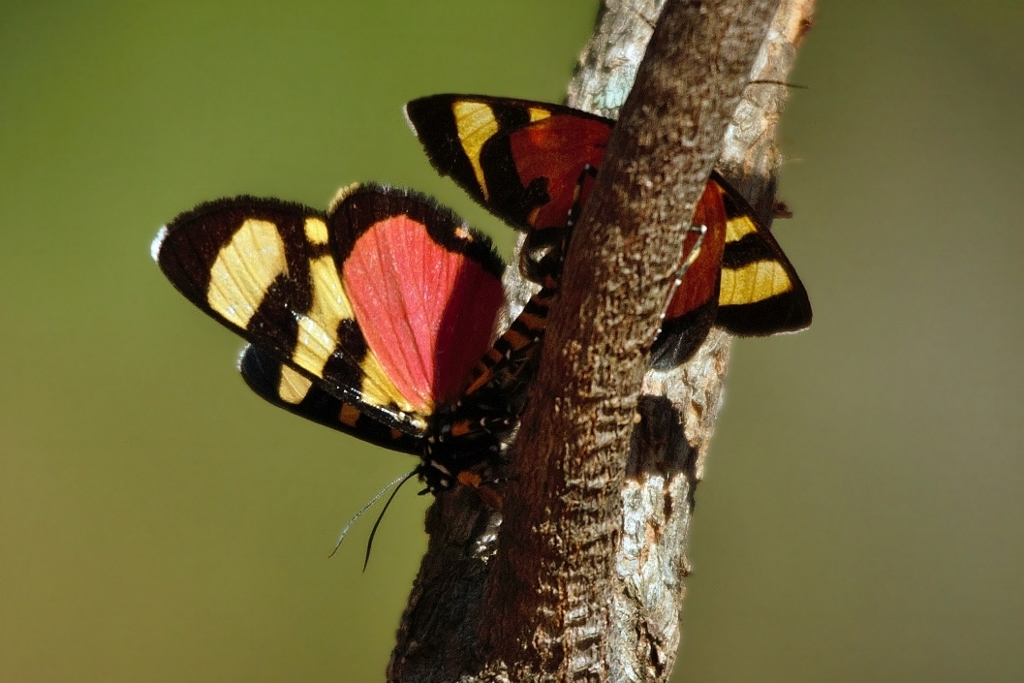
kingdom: Animalia
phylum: Arthropoda
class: Insecta
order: Lepidoptera
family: Noctuidae
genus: Heraclia
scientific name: Heraclia perdix
